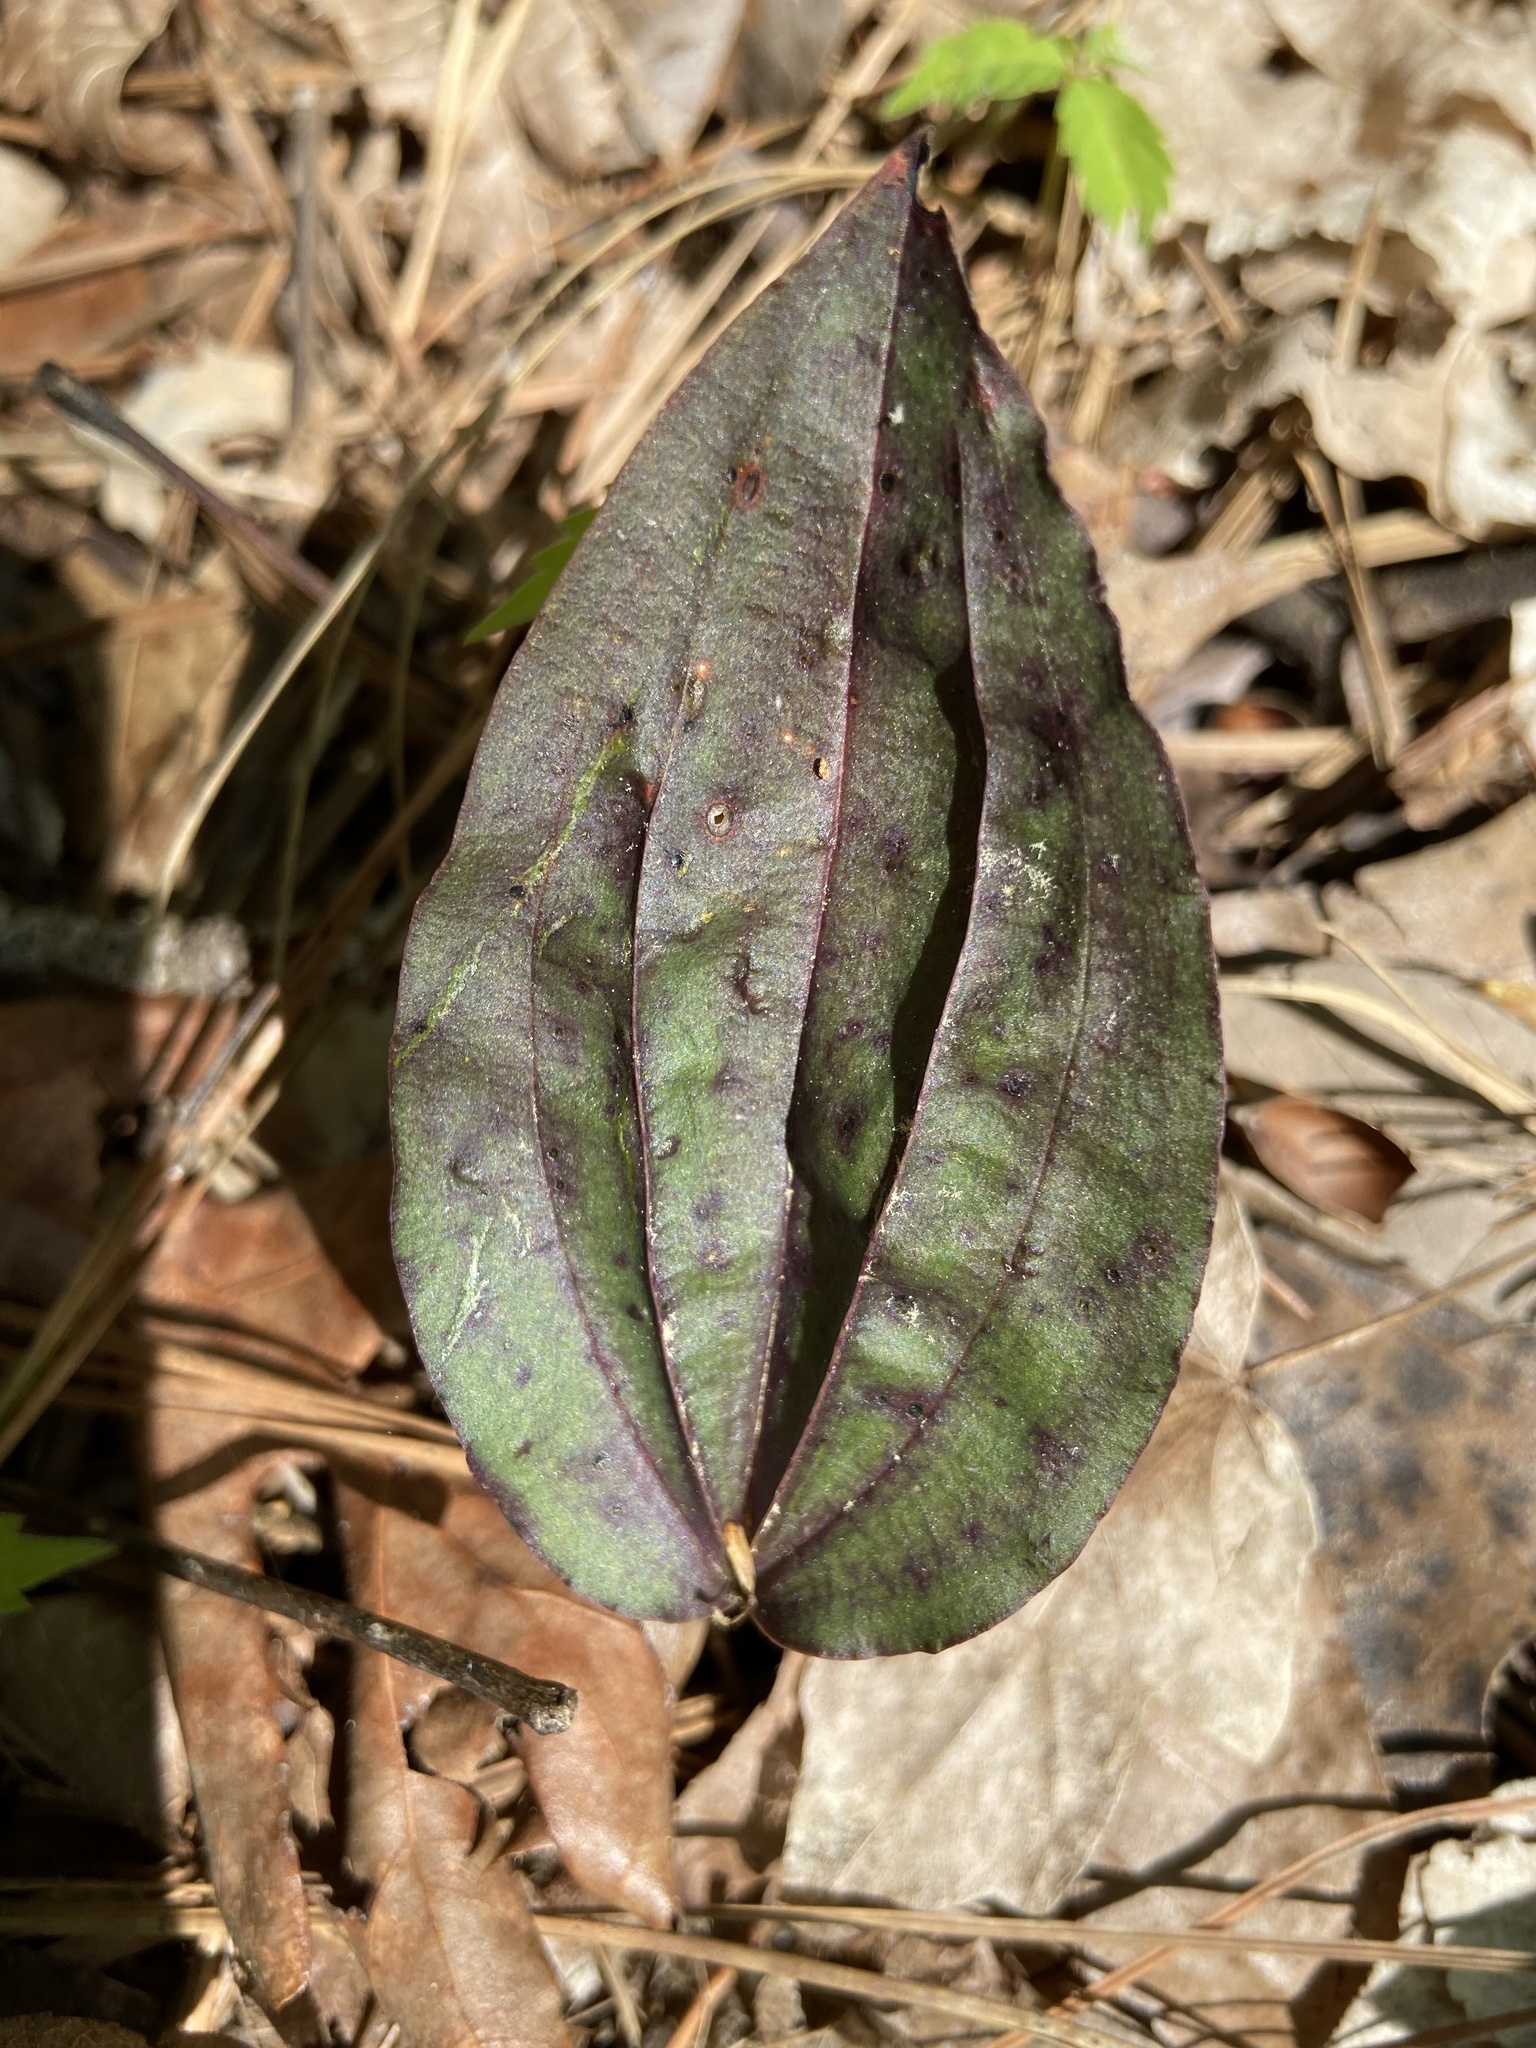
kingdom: Plantae
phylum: Tracheophyta
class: Liliopsida
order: Asparagales
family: Orchidaceae
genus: Tipularia
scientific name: Tipularia discolor
